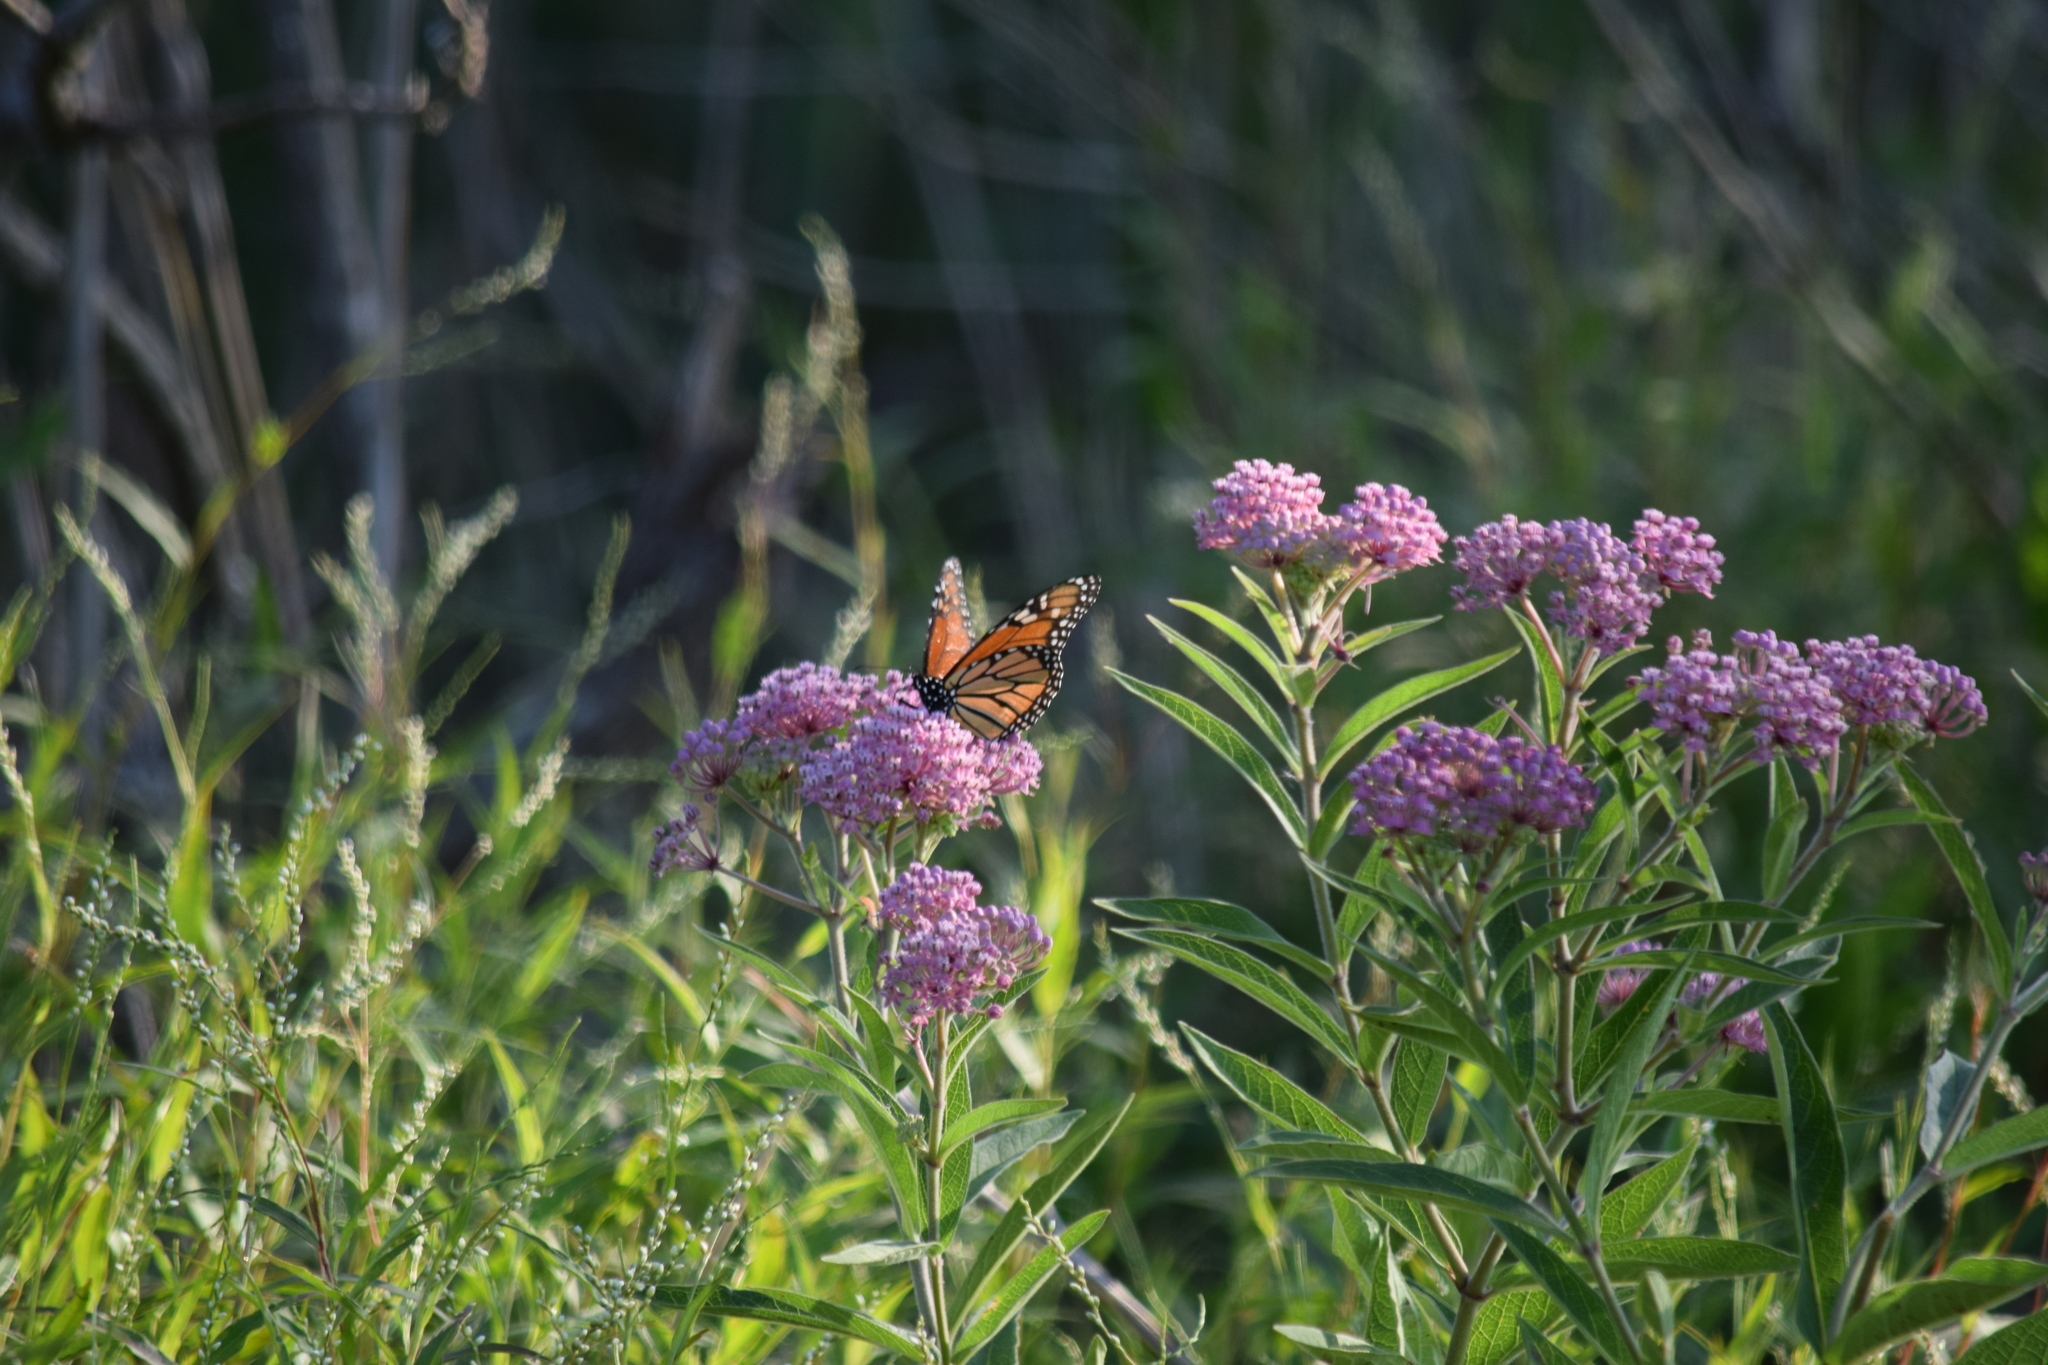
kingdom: Animalia
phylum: Arthropoda
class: Insecta
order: Lepidoptera
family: Nymphalidae
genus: Danaus
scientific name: Danaus plexippus
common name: Monarch
